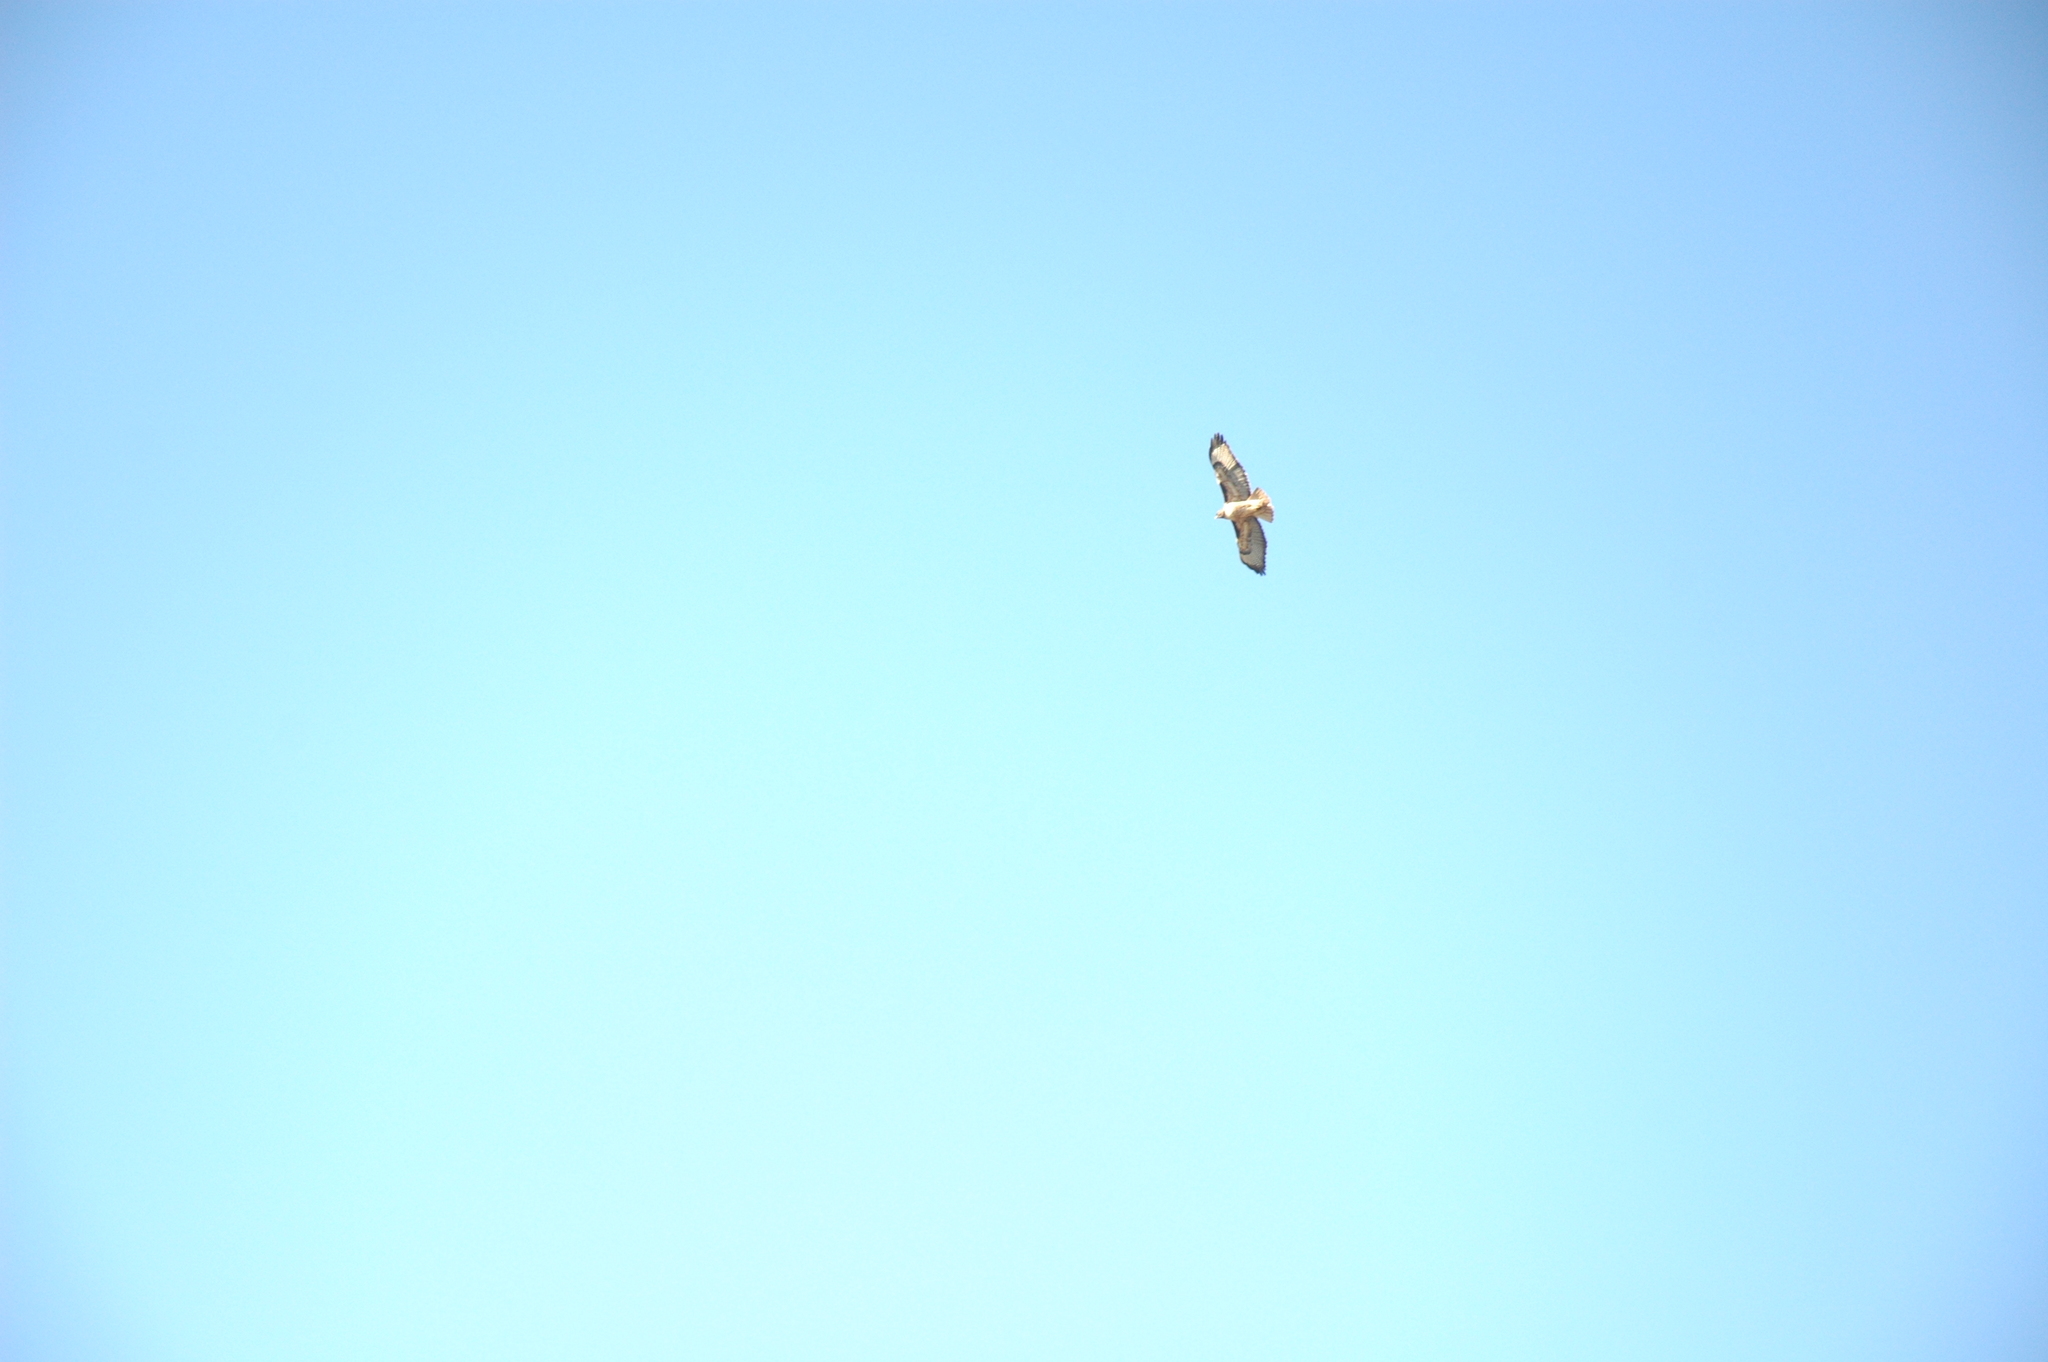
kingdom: Animalia
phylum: Chordata
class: Aves
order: Accipitriformes
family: Accipitridae
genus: Buteo
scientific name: Buteo jamaicensis
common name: Red-tailed hawk
